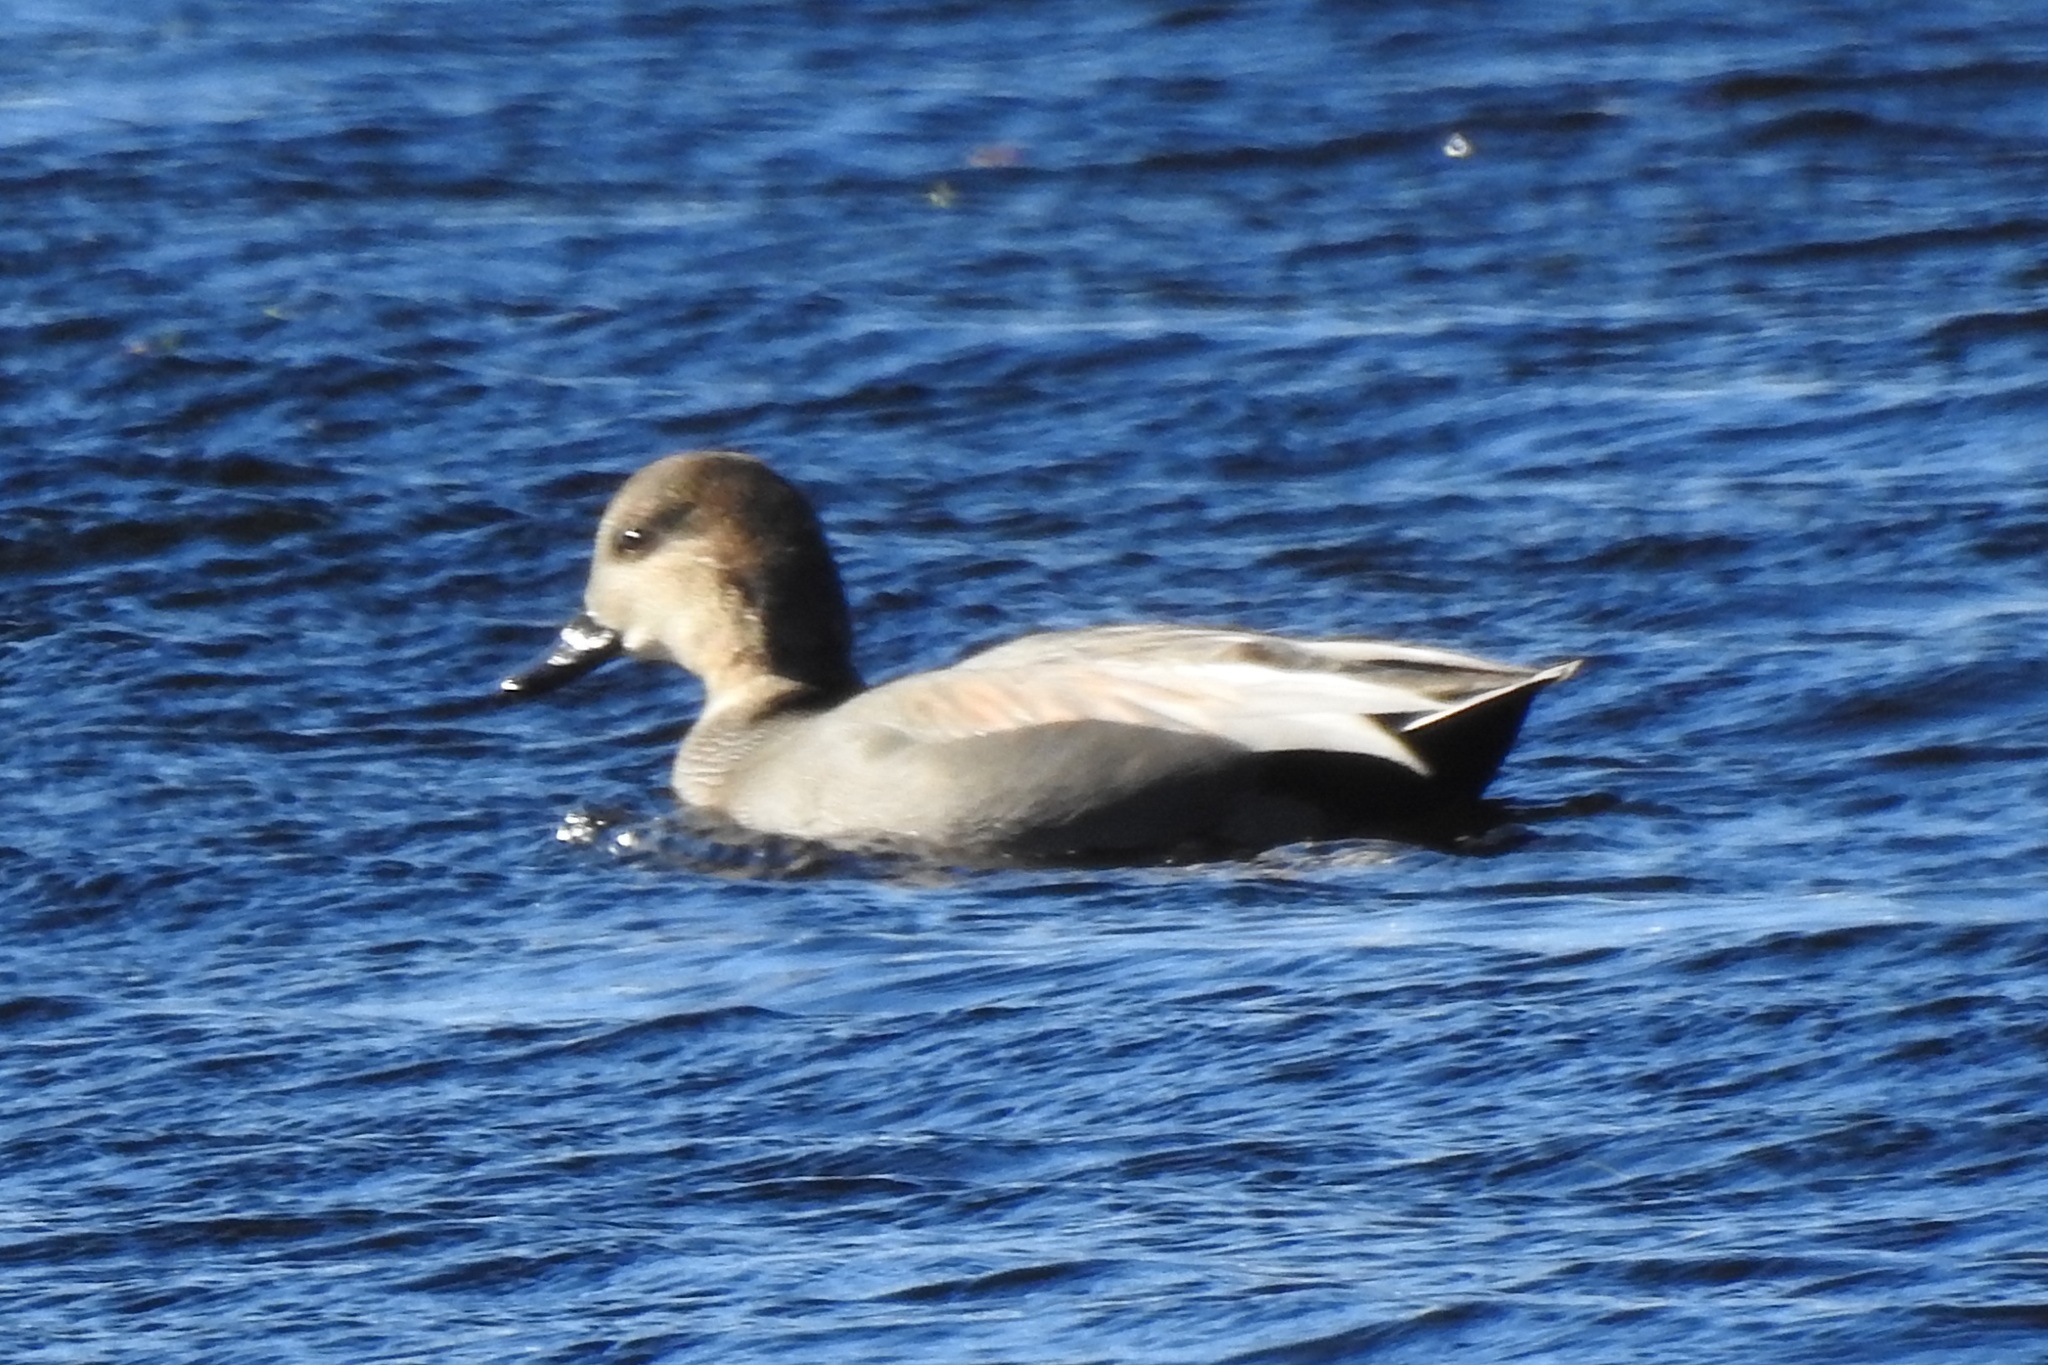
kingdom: Animalia
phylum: Chordata
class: Aves
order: Anseriformes
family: Anatidae
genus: Mareca
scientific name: Mareca strepera
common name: Gadwall
